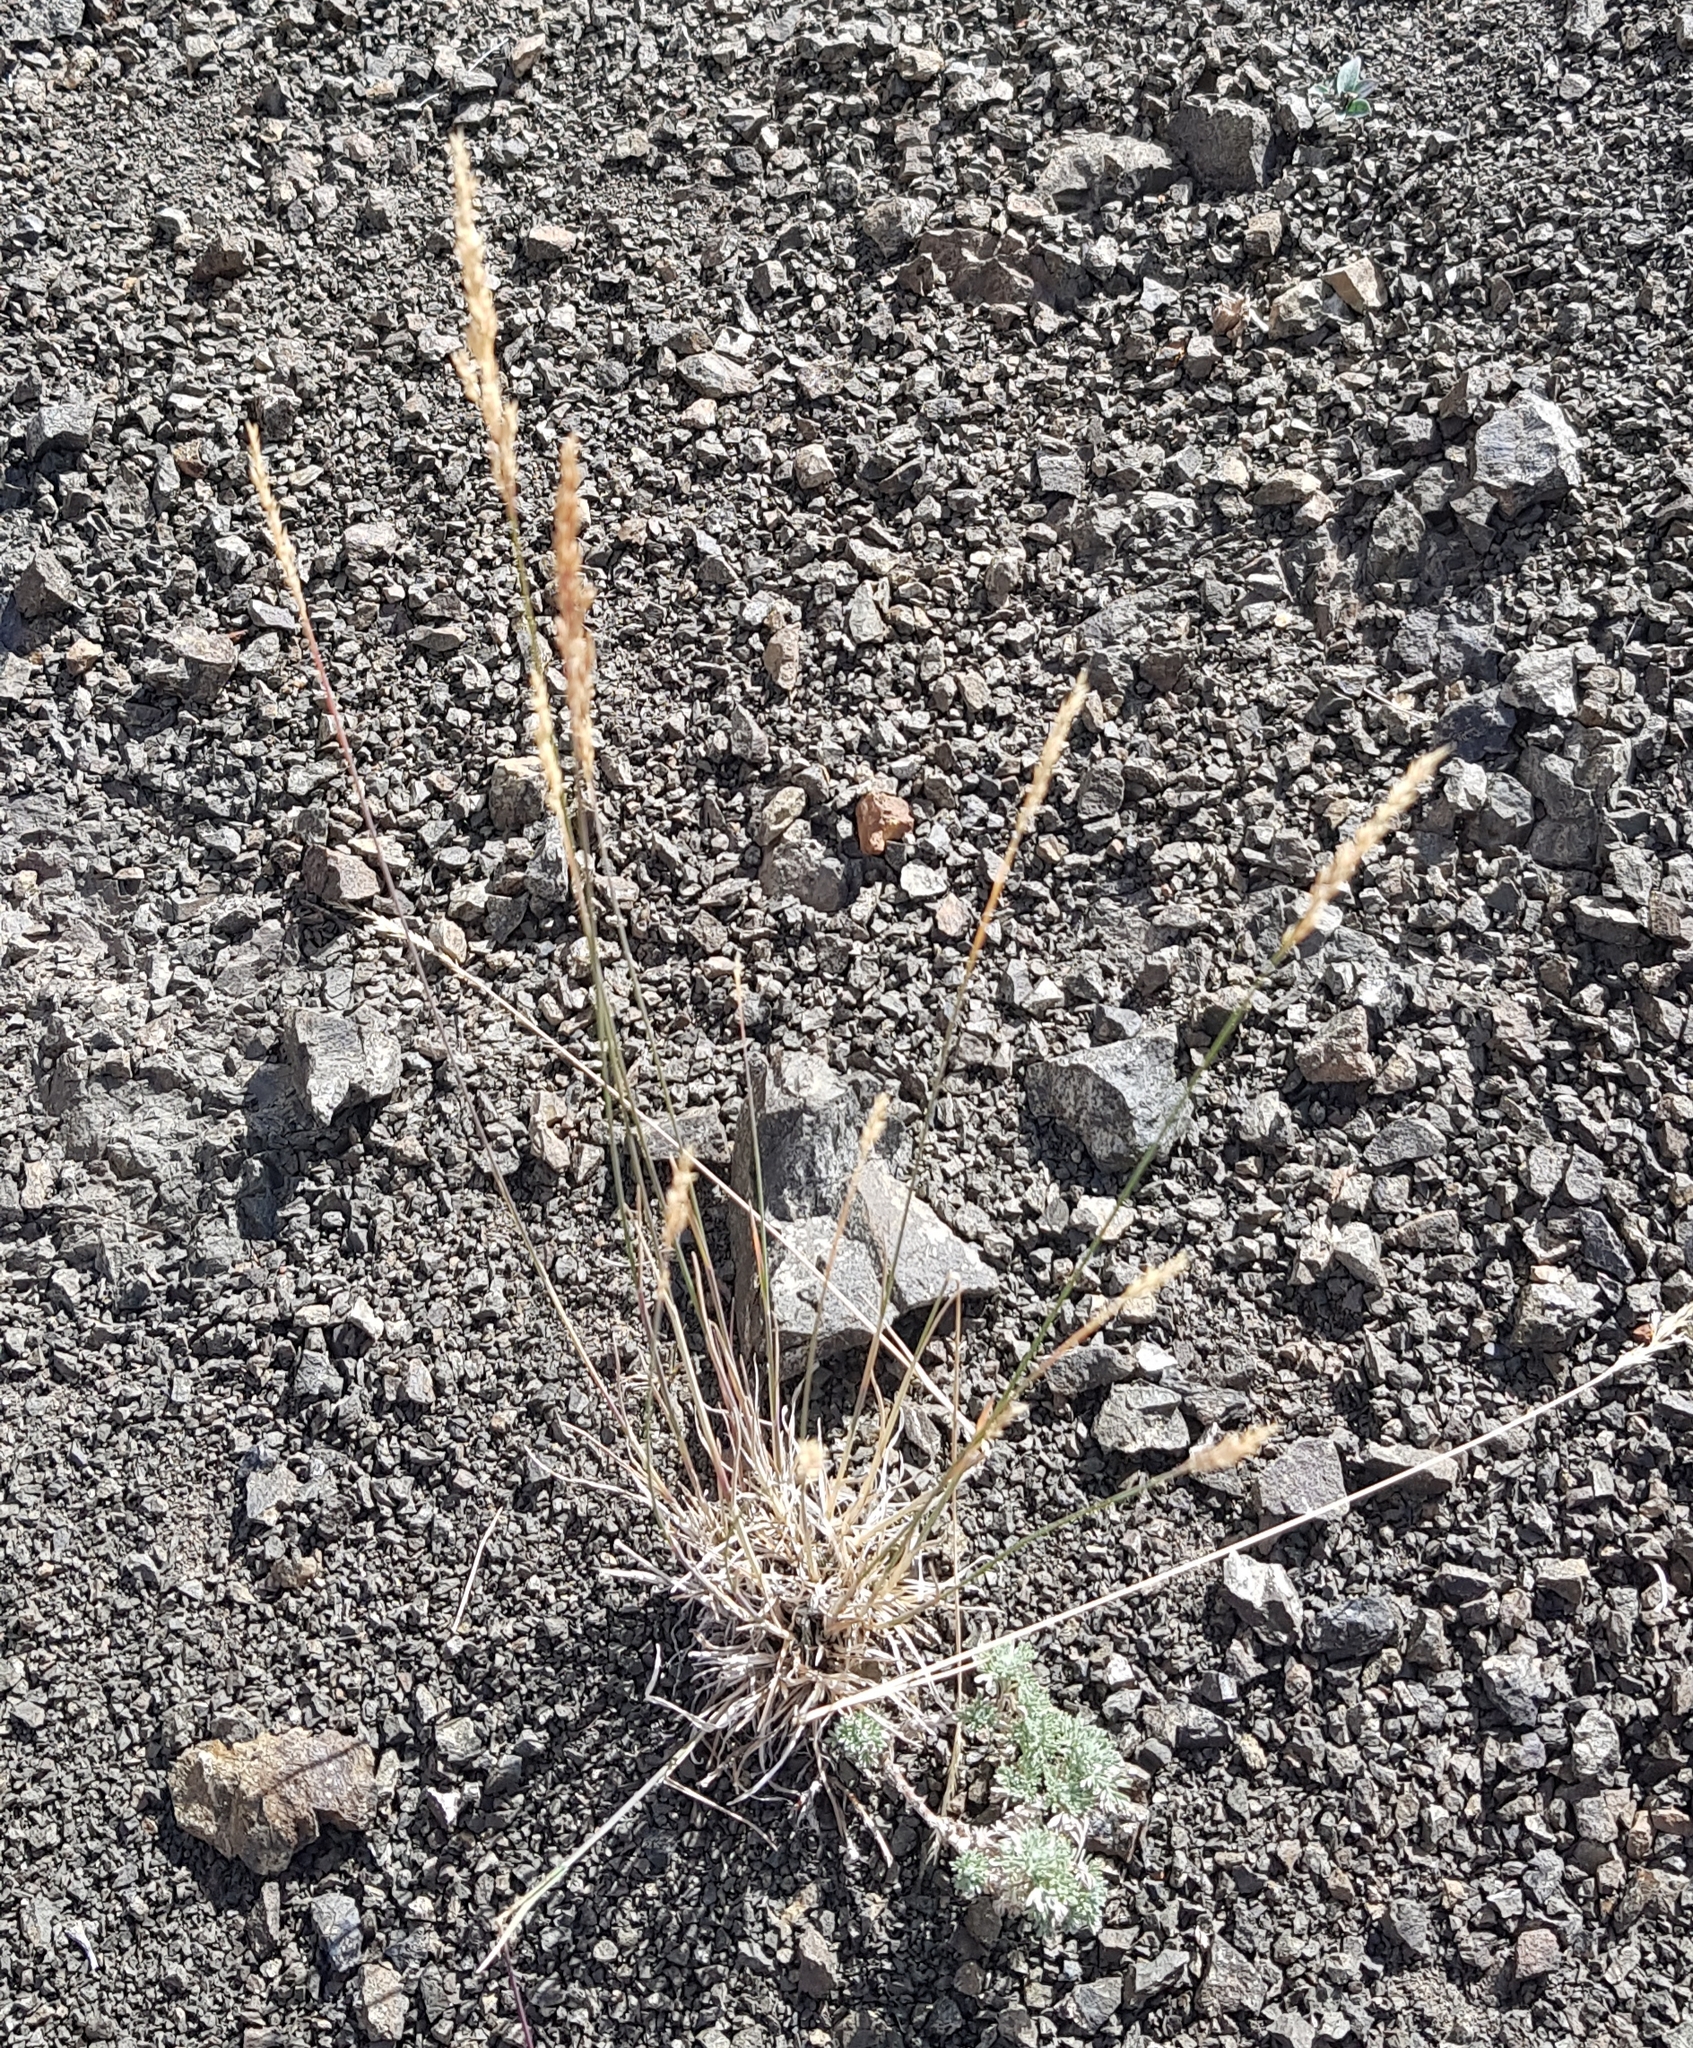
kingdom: Plantae
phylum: Tracheophyta
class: Liliopsida
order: Poales
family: Poaceae
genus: Koeleria
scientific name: Koeleria macrantha
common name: Crested hair-grass
